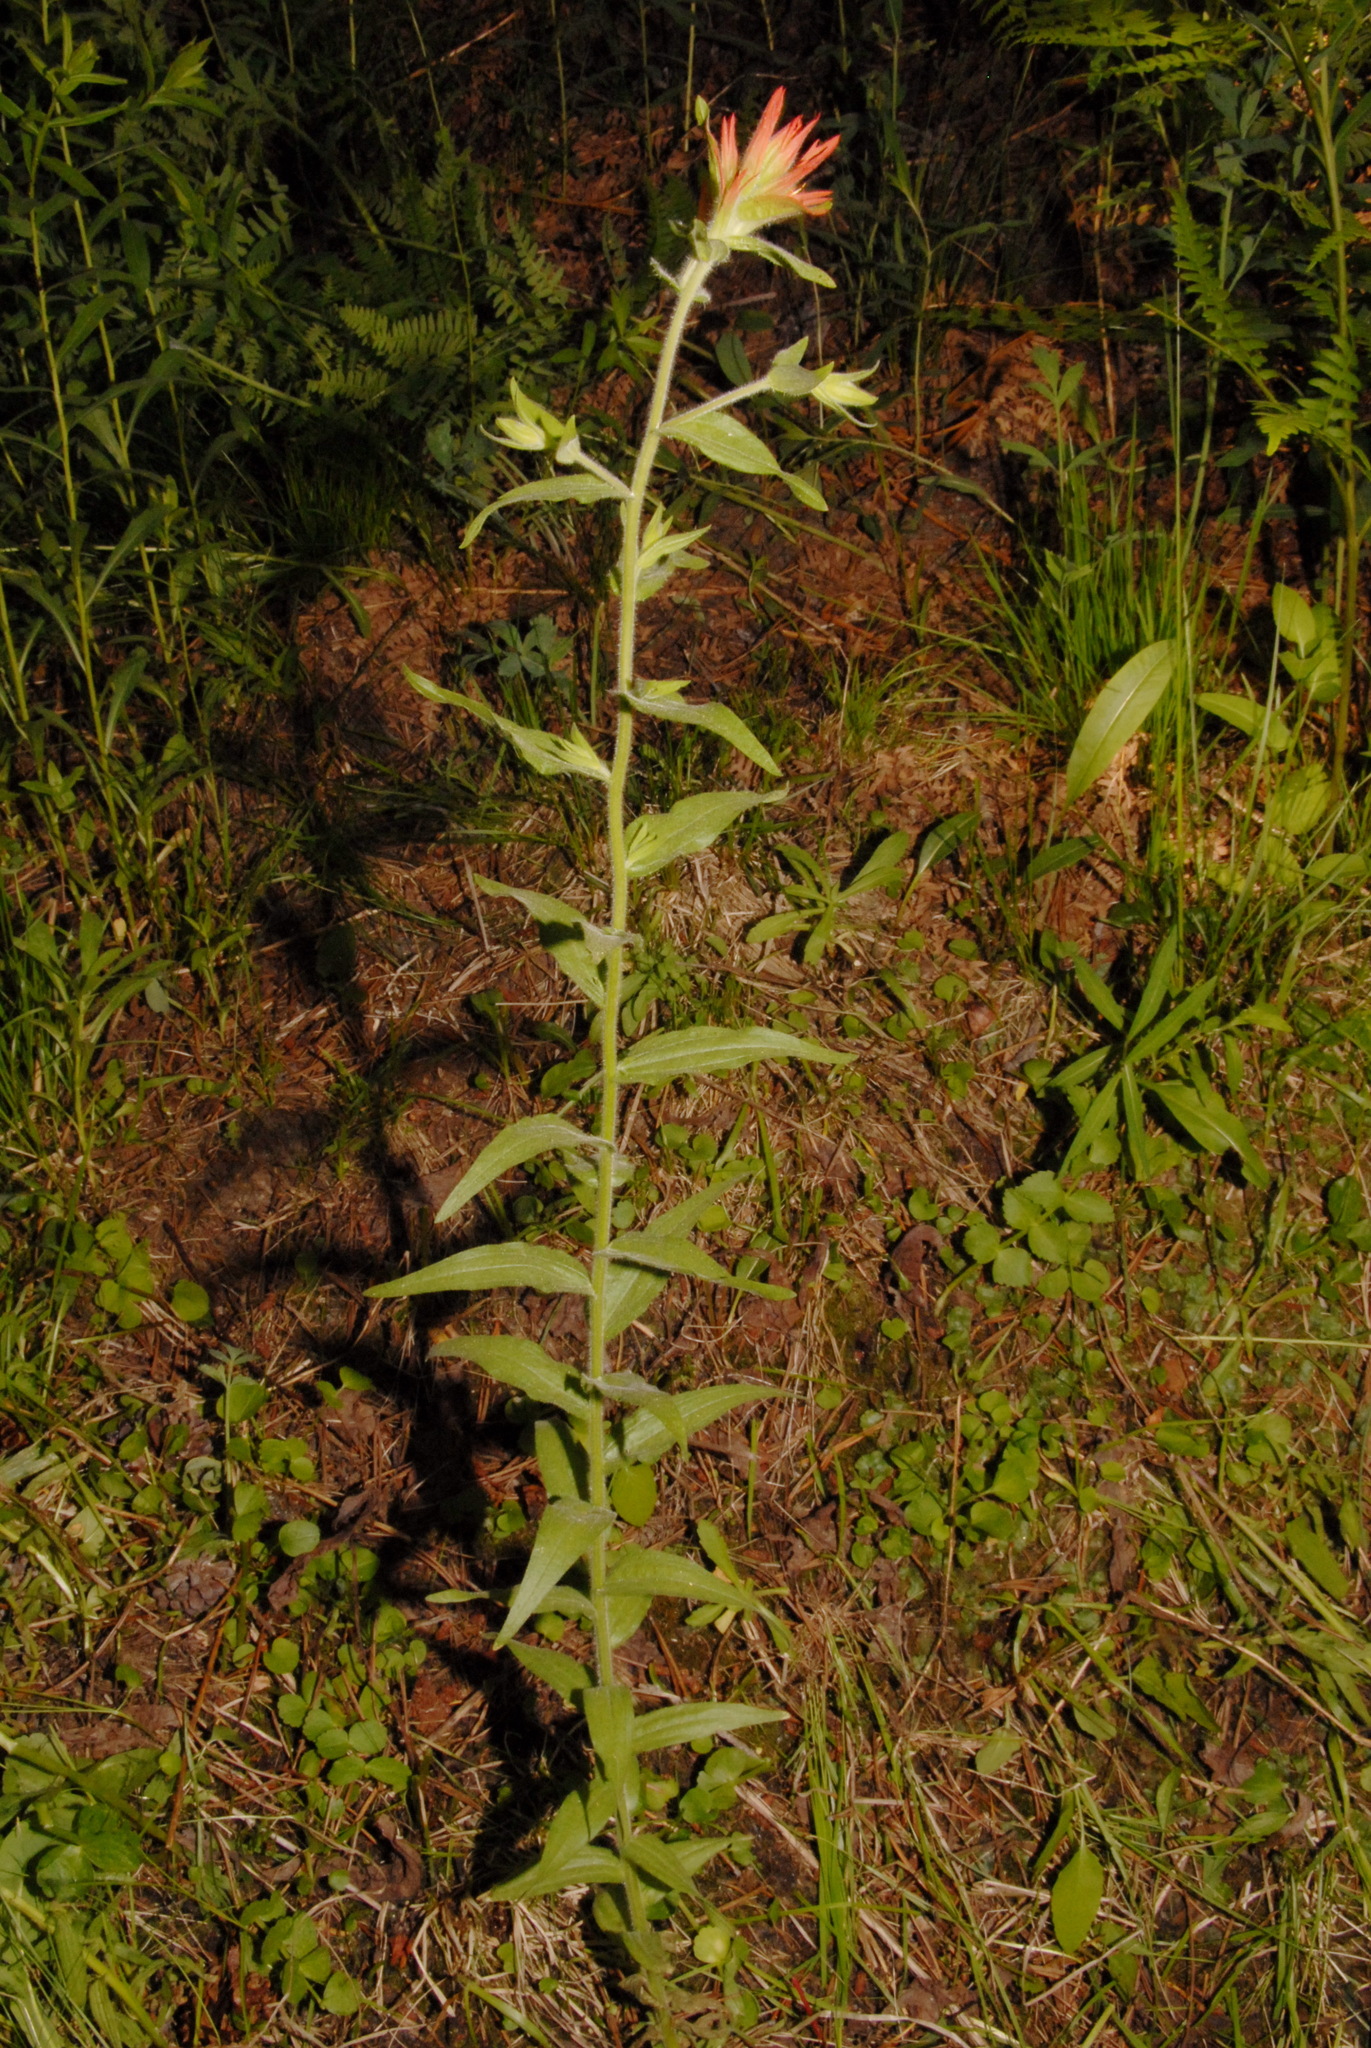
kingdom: Plantae
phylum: Tracheophyta
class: Magnoliopsida
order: Lamiales
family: Orobanchaceae
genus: Castilleja
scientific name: Castilleja miniata
